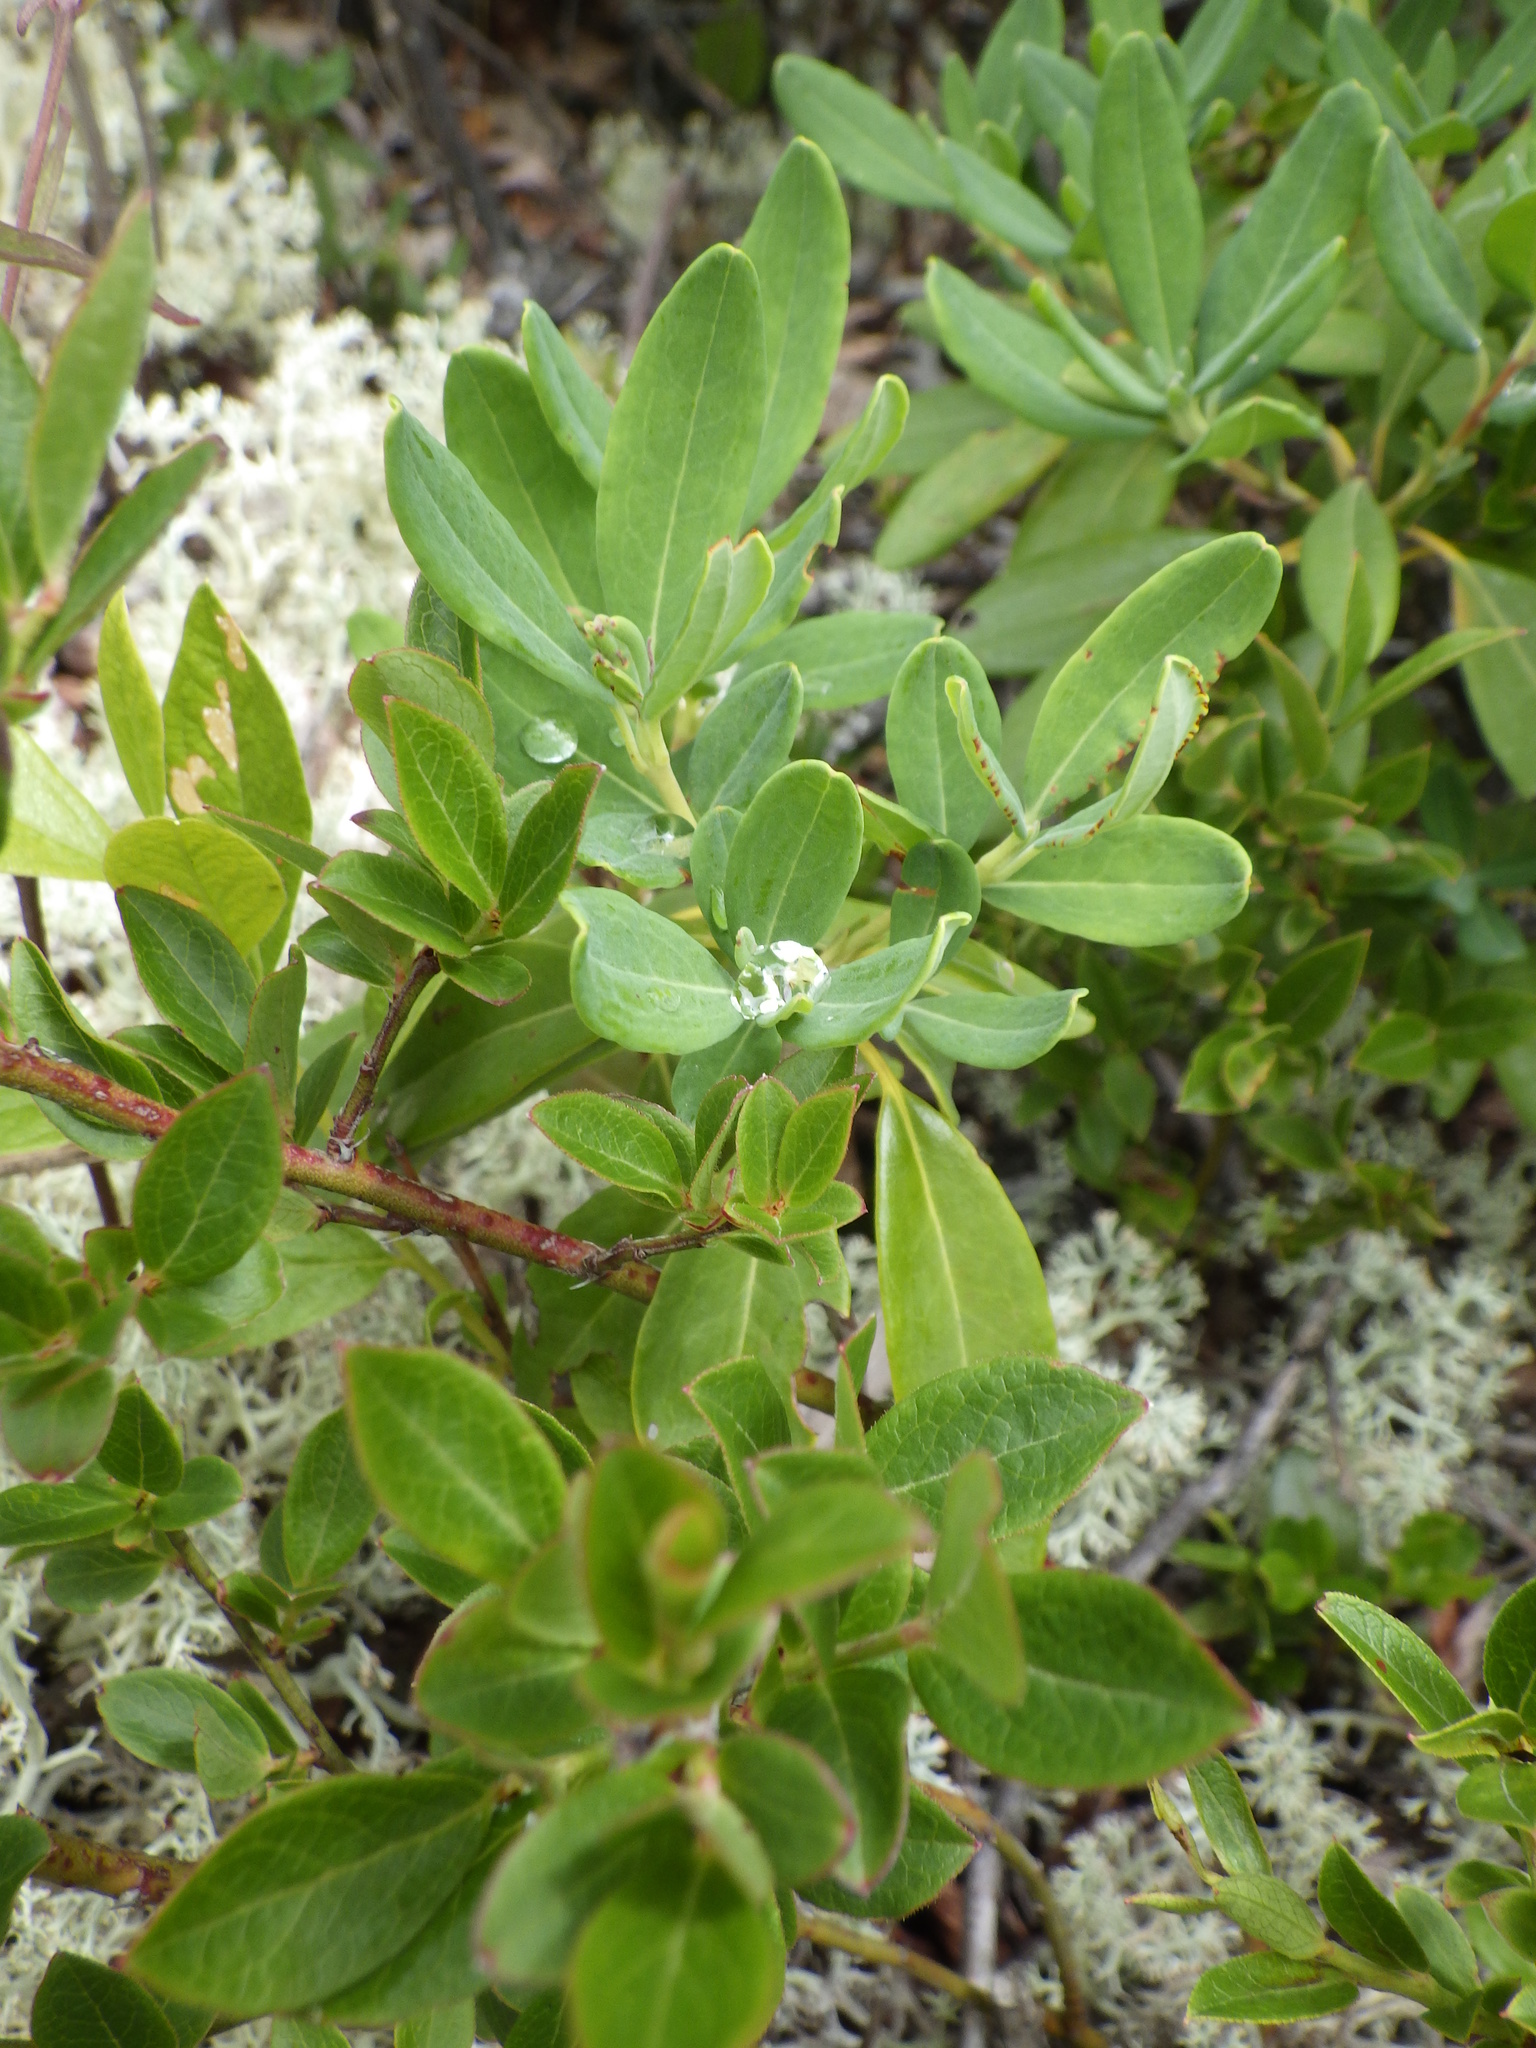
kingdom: Plantae
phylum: Tracheophyta
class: Magnoliopsida
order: Ericales
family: Ericaceae
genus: Kalmia
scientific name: Kalmia angustifolia
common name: Sheep-laurel
